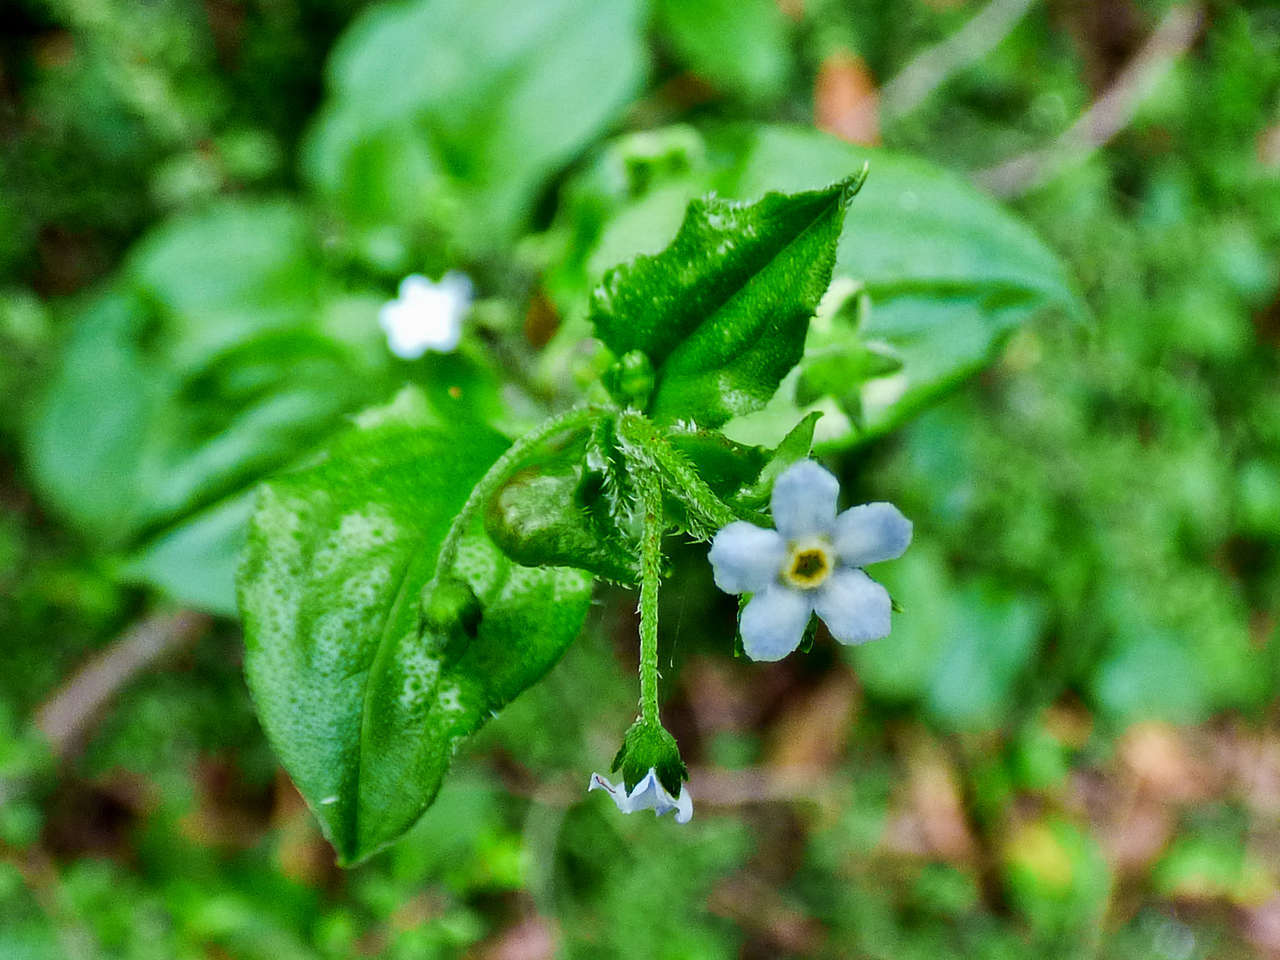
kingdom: Plantae
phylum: Tracheophyta
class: Magnoliopsida
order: Boraginales
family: Boraginaceae
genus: Hackelia
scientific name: Hackelia latifolia
